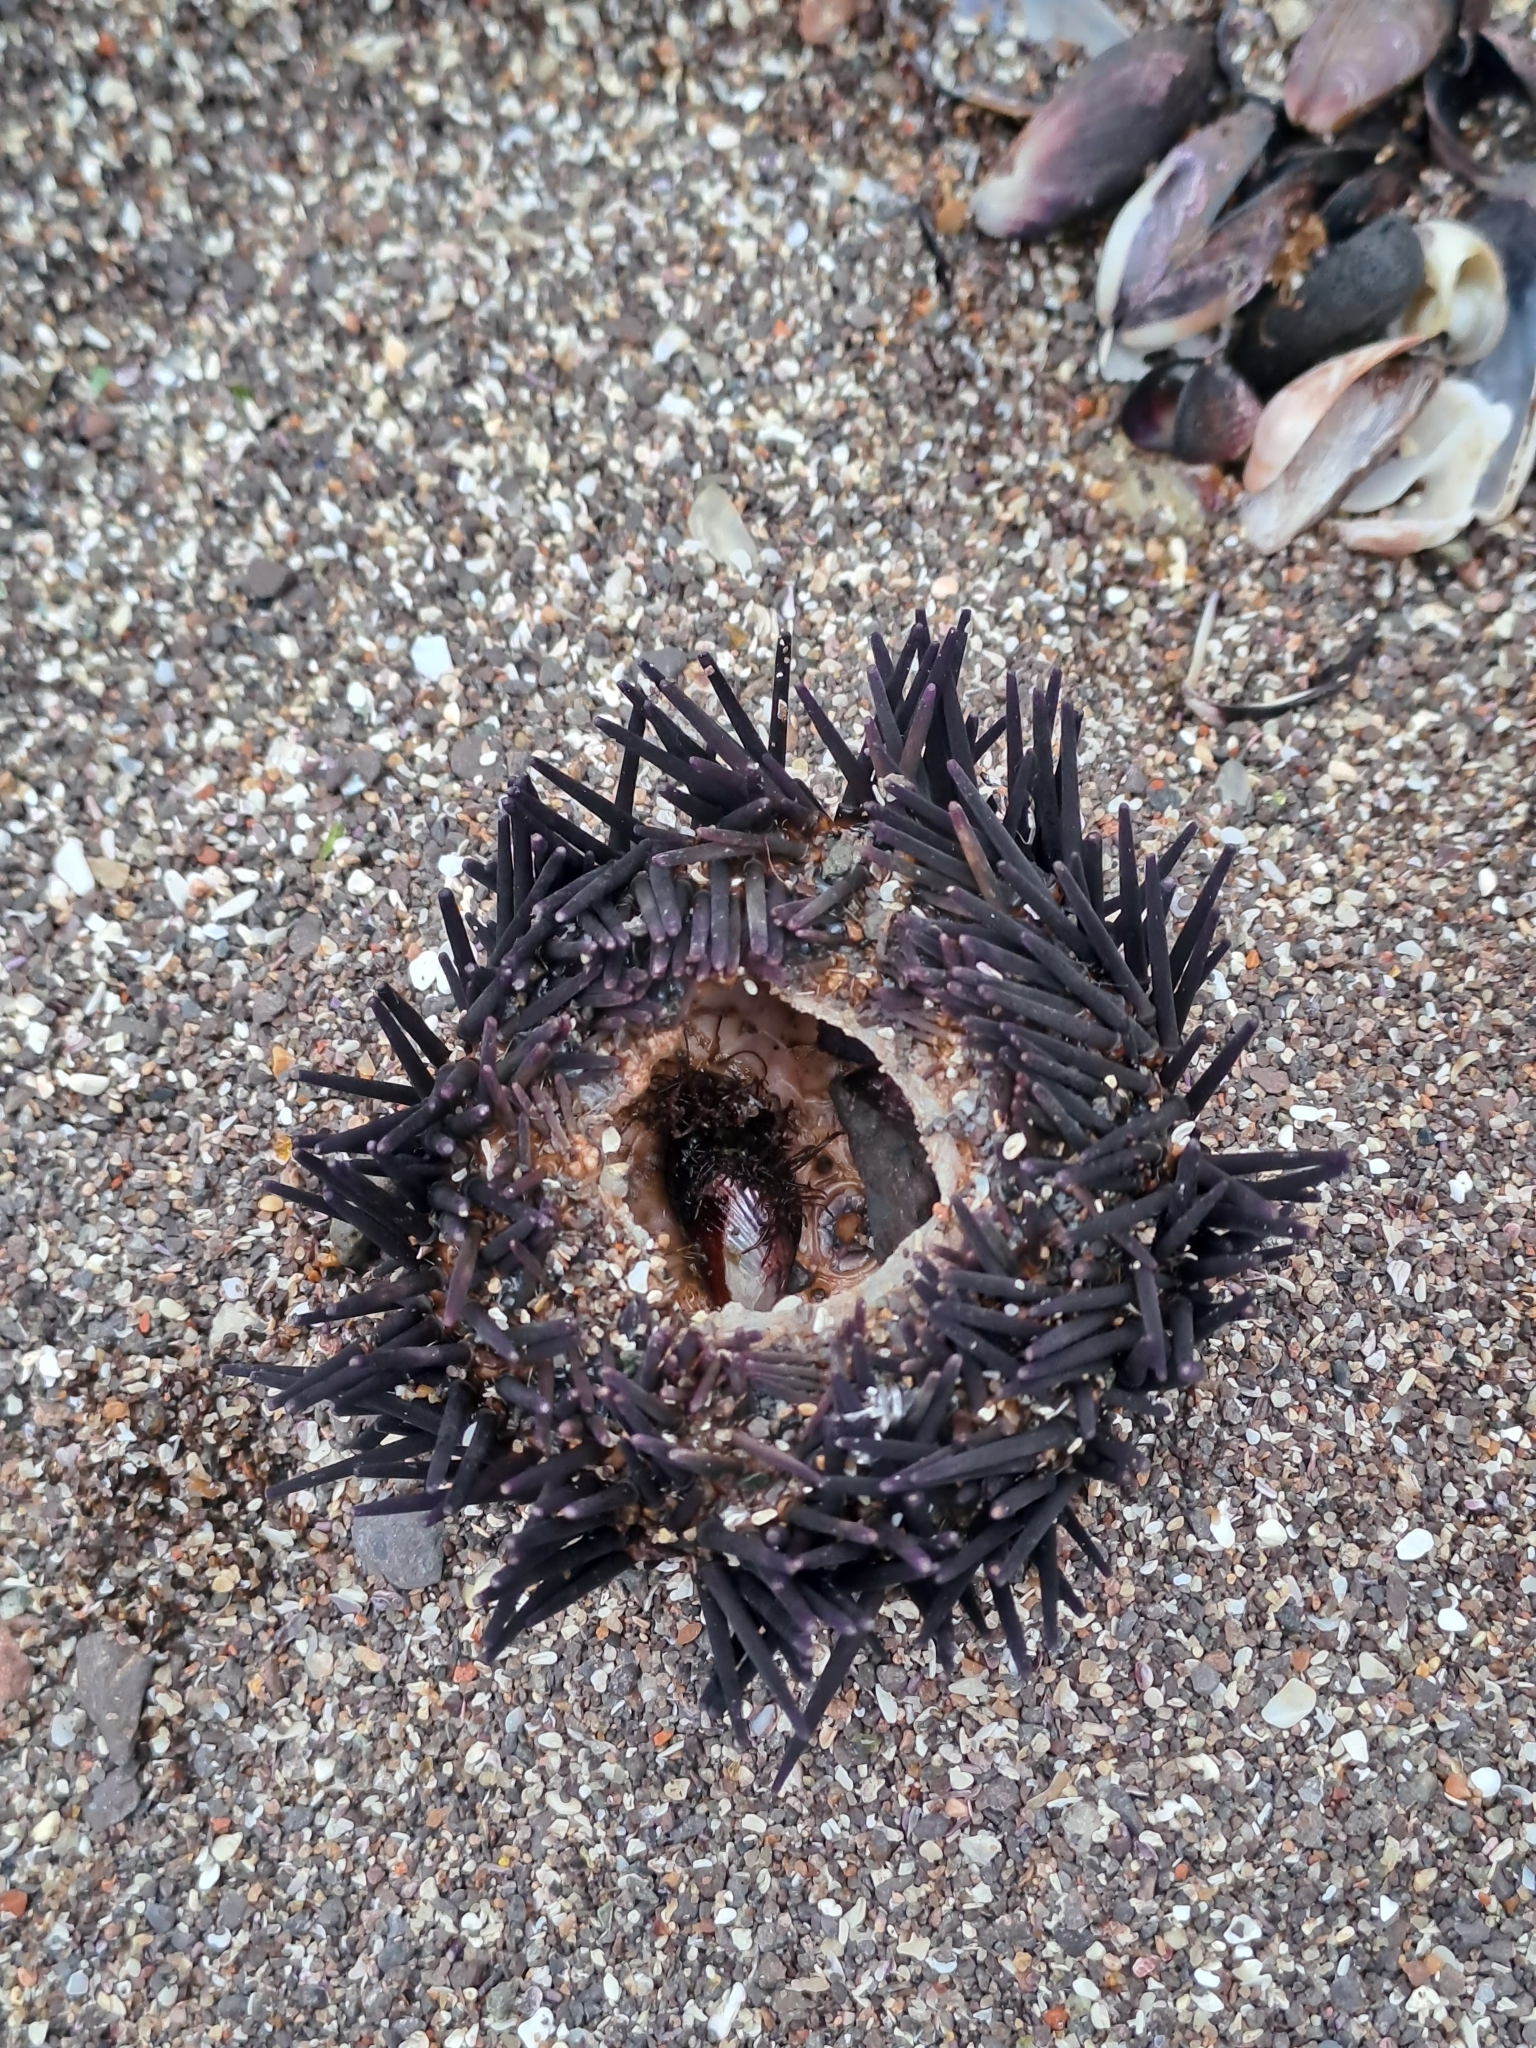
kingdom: Animalia
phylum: Echinodermata
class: Echinoidea
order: Arbacioida
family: Arbaciidae
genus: Tetrapygus
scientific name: Tetrapygus niger
